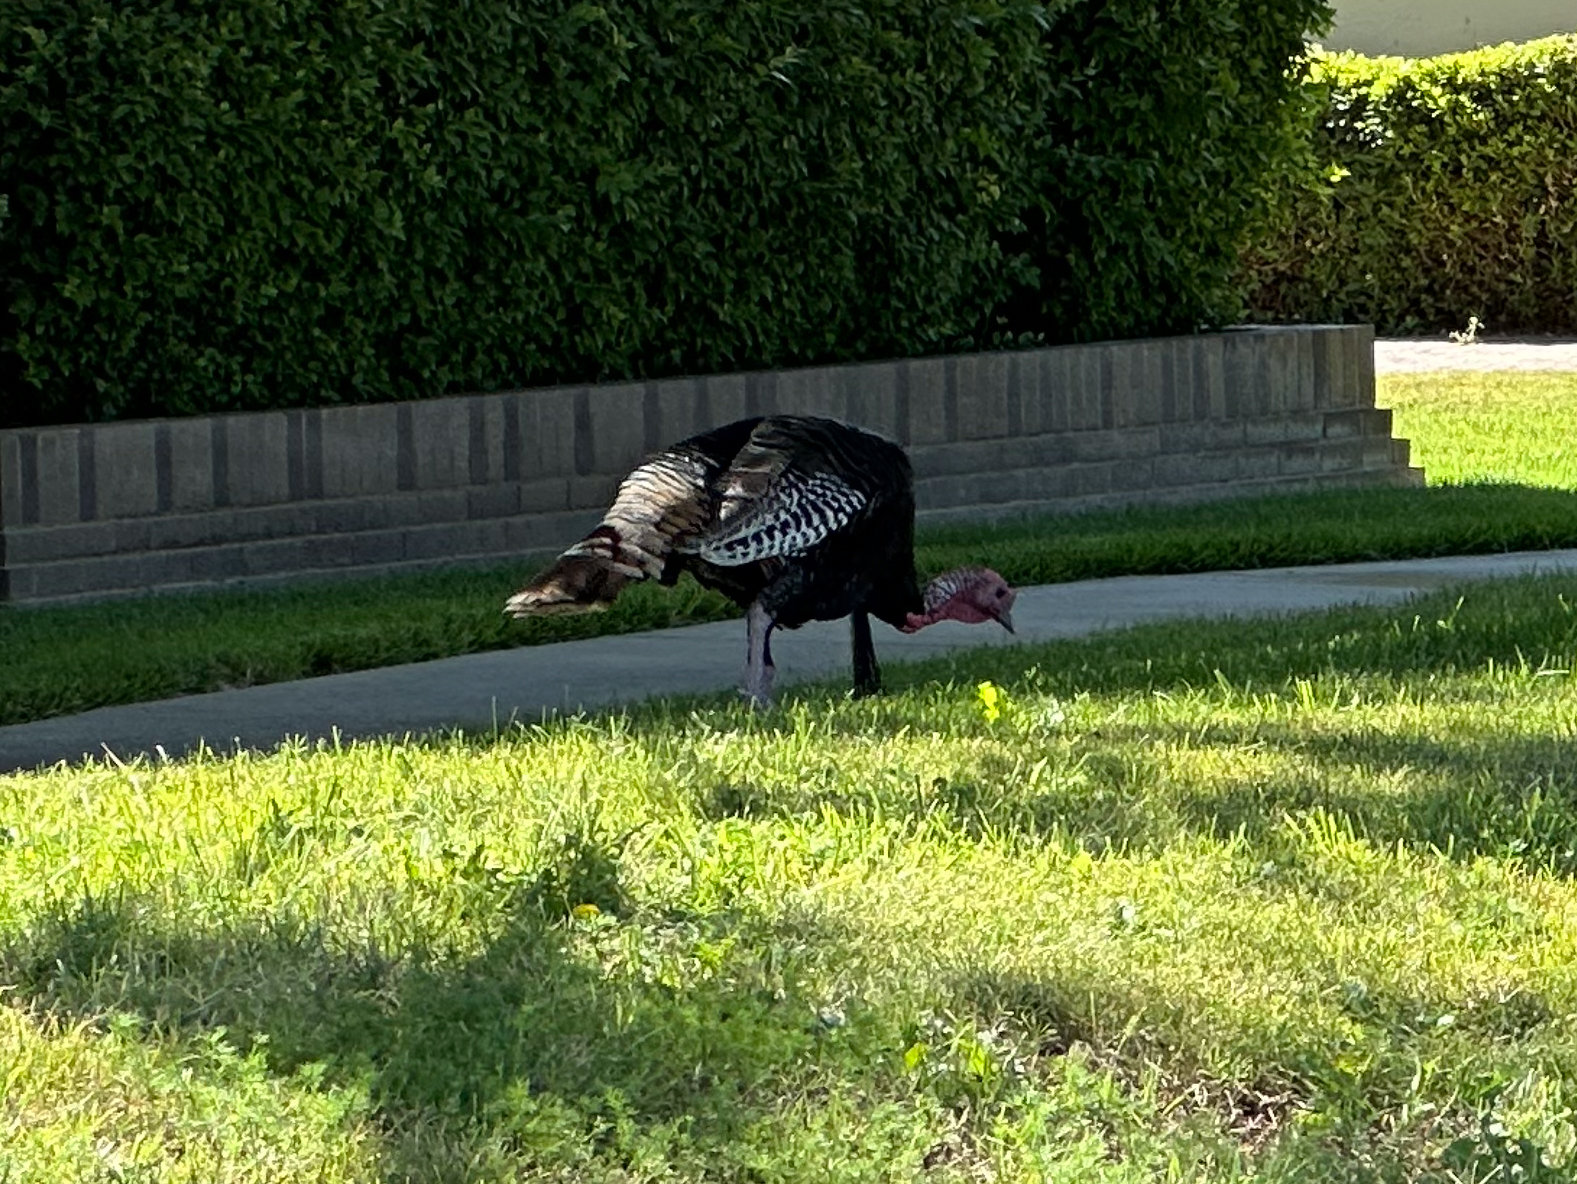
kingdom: Animalia
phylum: Chordata
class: Aves
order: Galliformes
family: Phasianidae
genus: Meleagris
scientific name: Meleagris gallopavo
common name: Wild turkey
